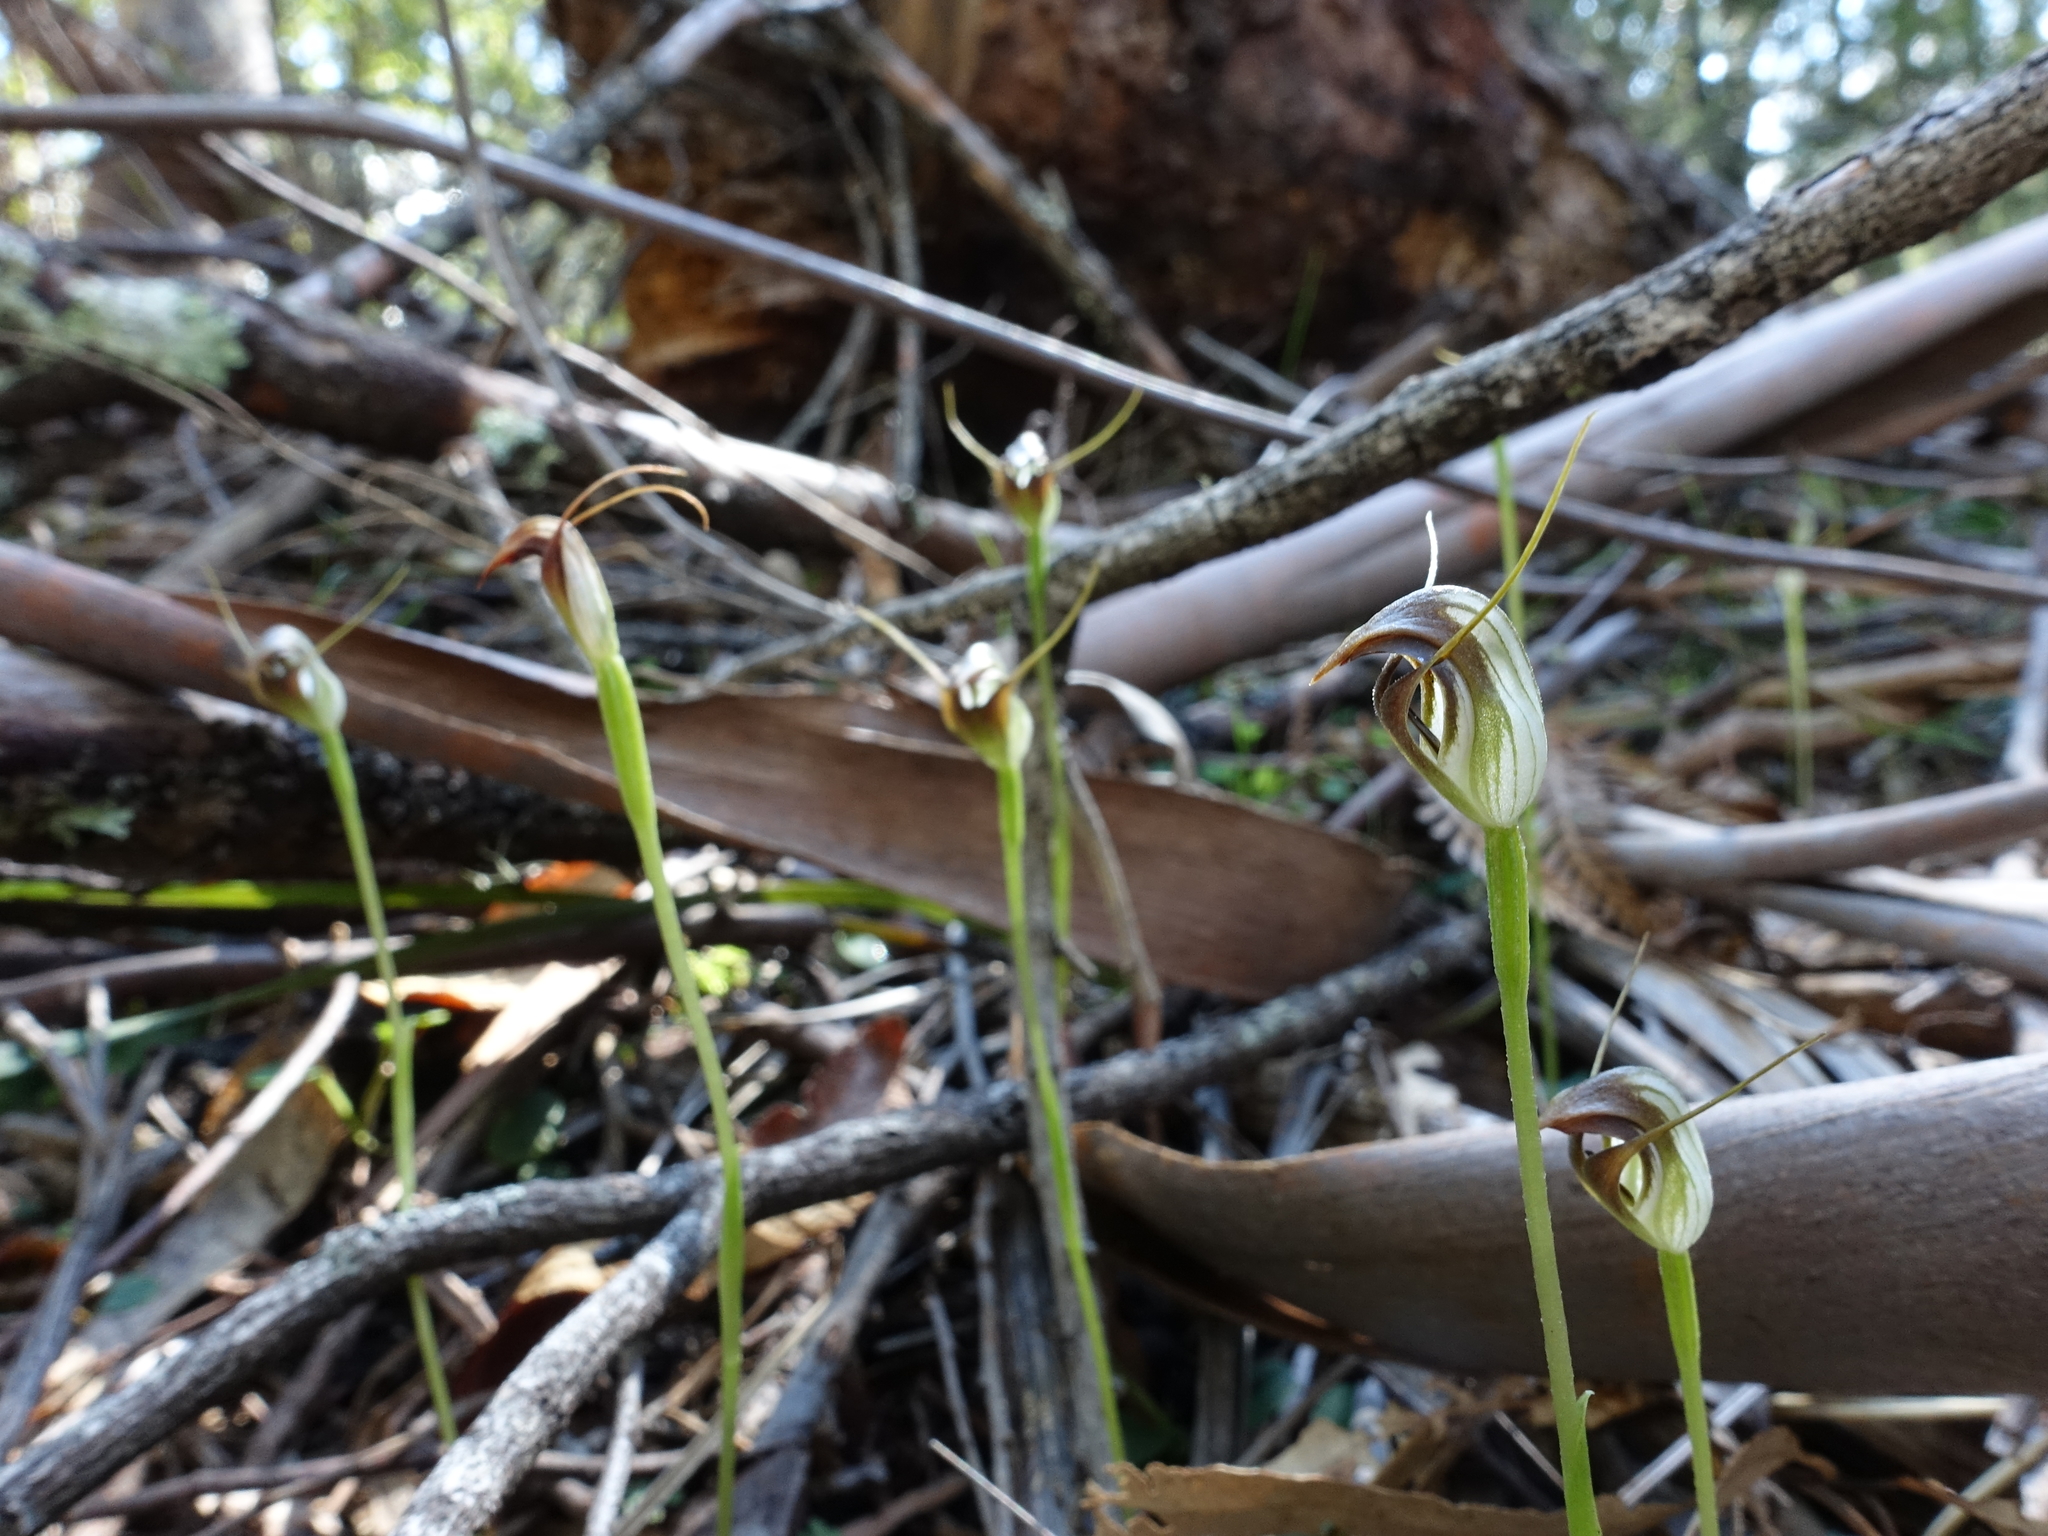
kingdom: Plantae
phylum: Tracheophyta
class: Liliopsida
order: Asparagales
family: Orchidaceae
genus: Pterostylis
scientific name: Pterostylis pedunculata
